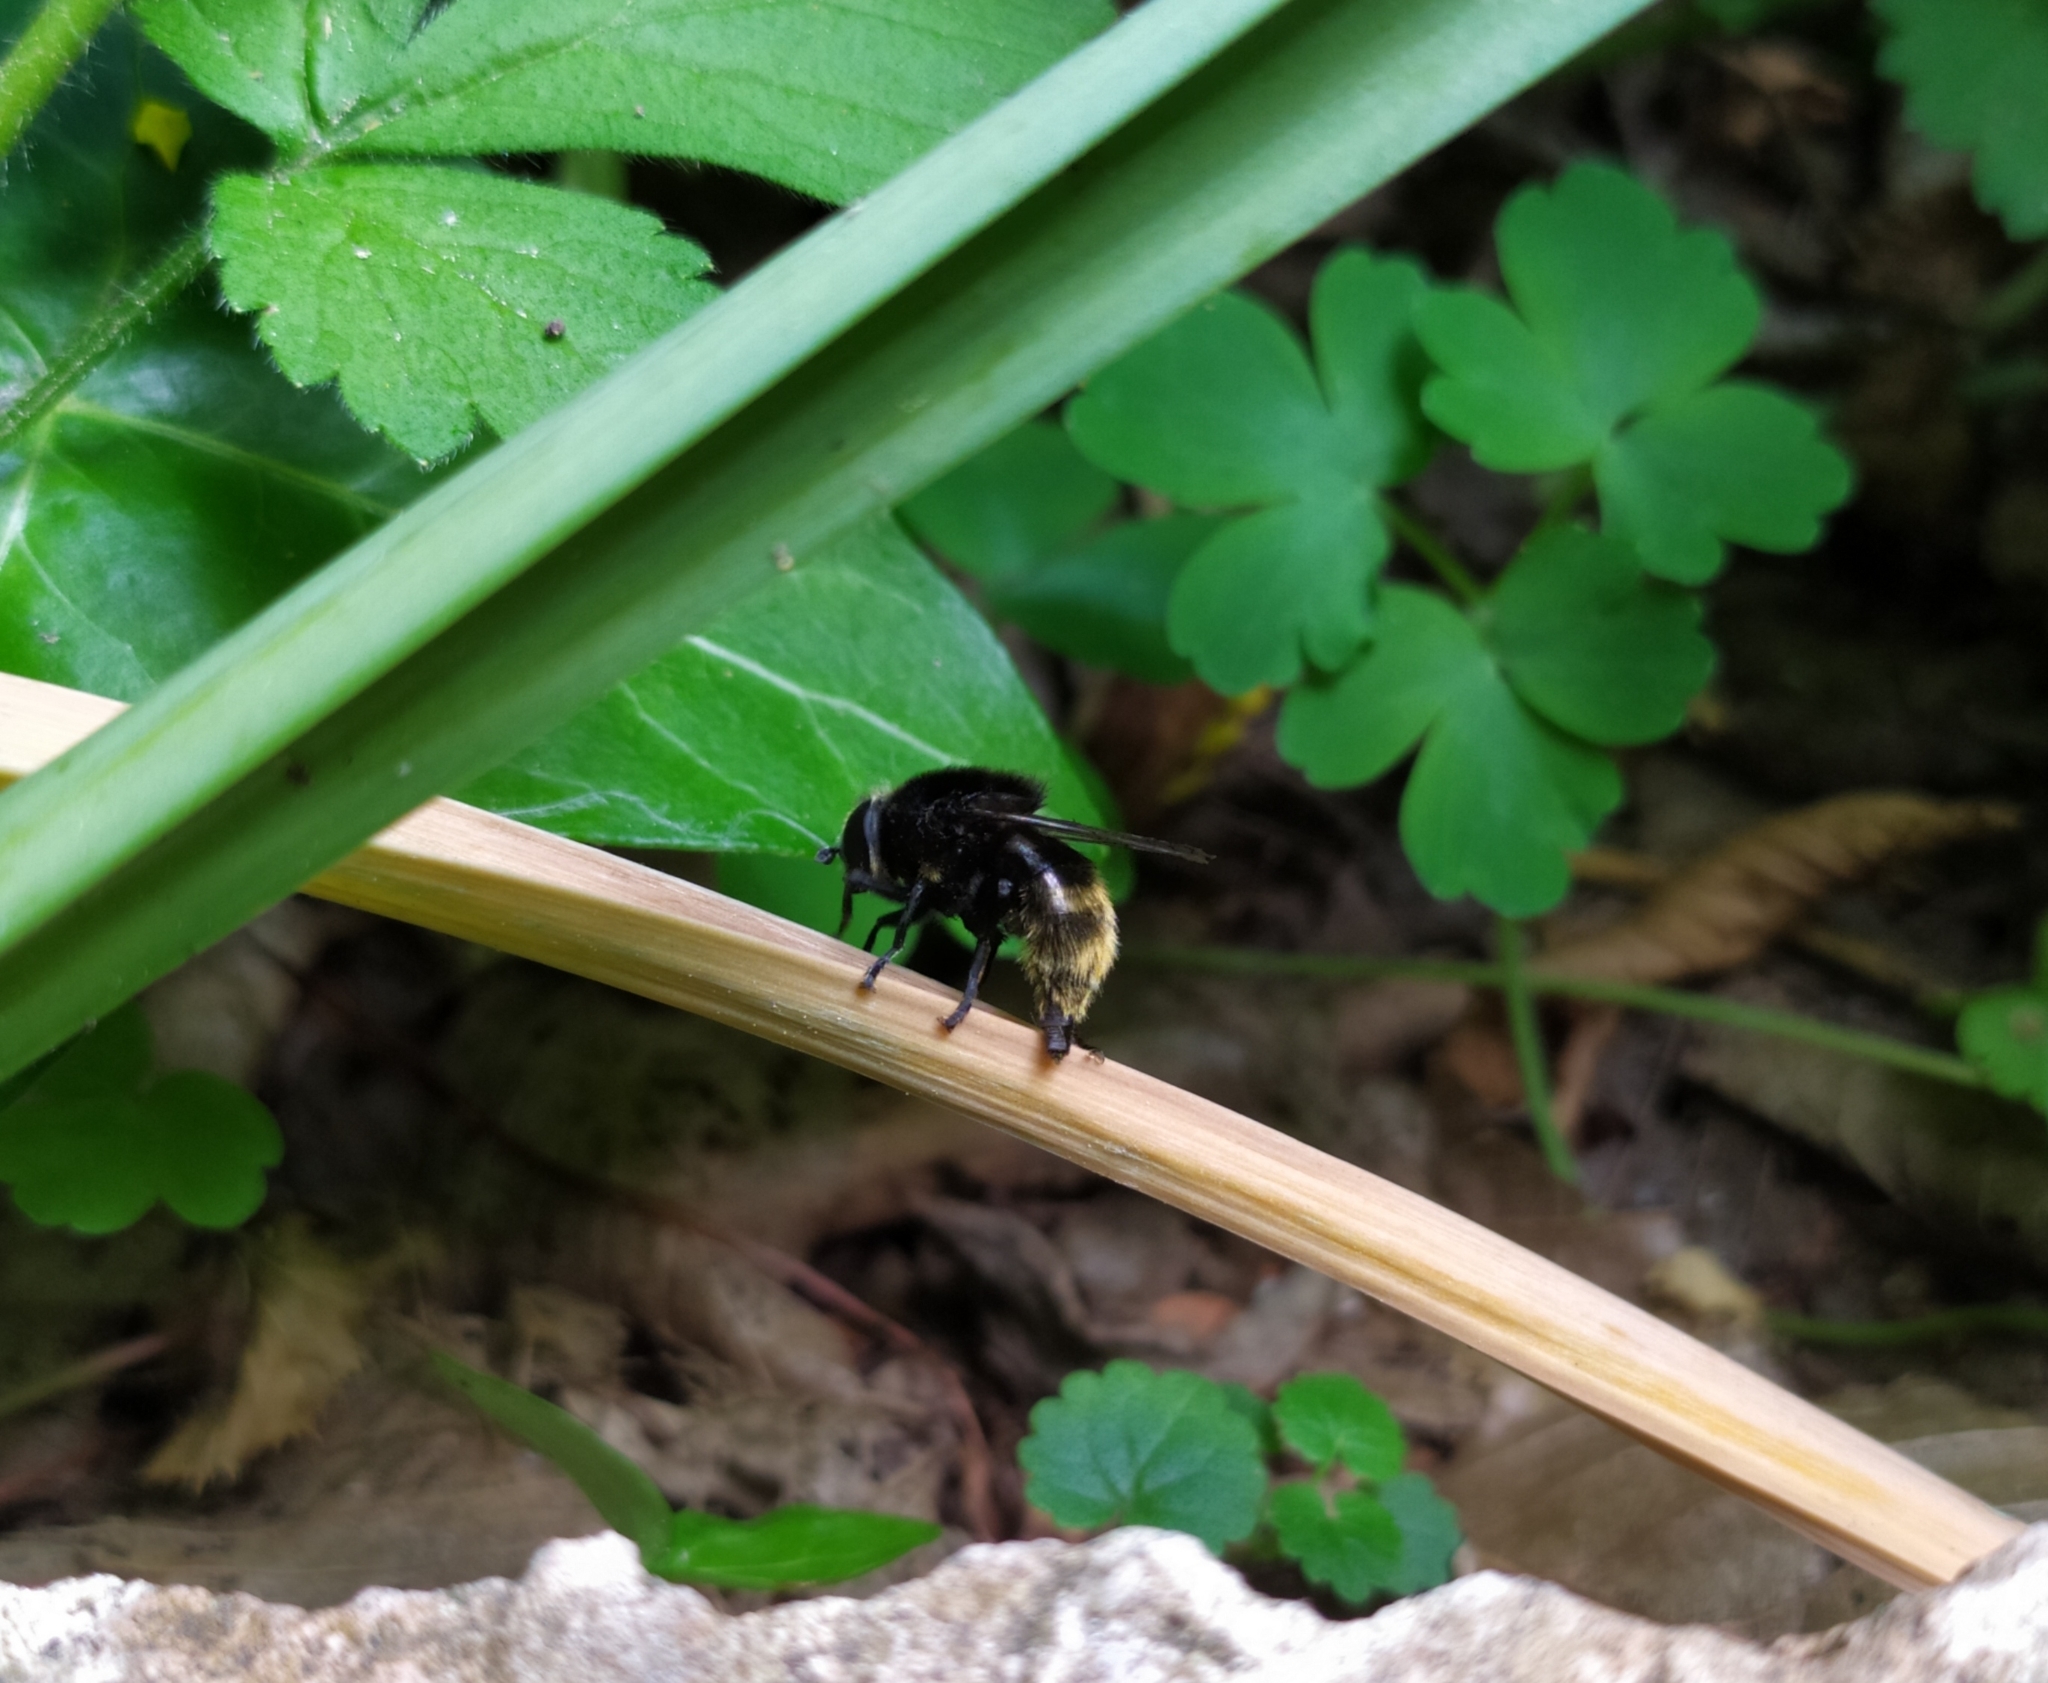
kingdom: Animalia
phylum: Arthropoda
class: Insecta
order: Diptera
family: Syrphidae
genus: Merodon
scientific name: Merodon equestris
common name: Greater bulb-fly
